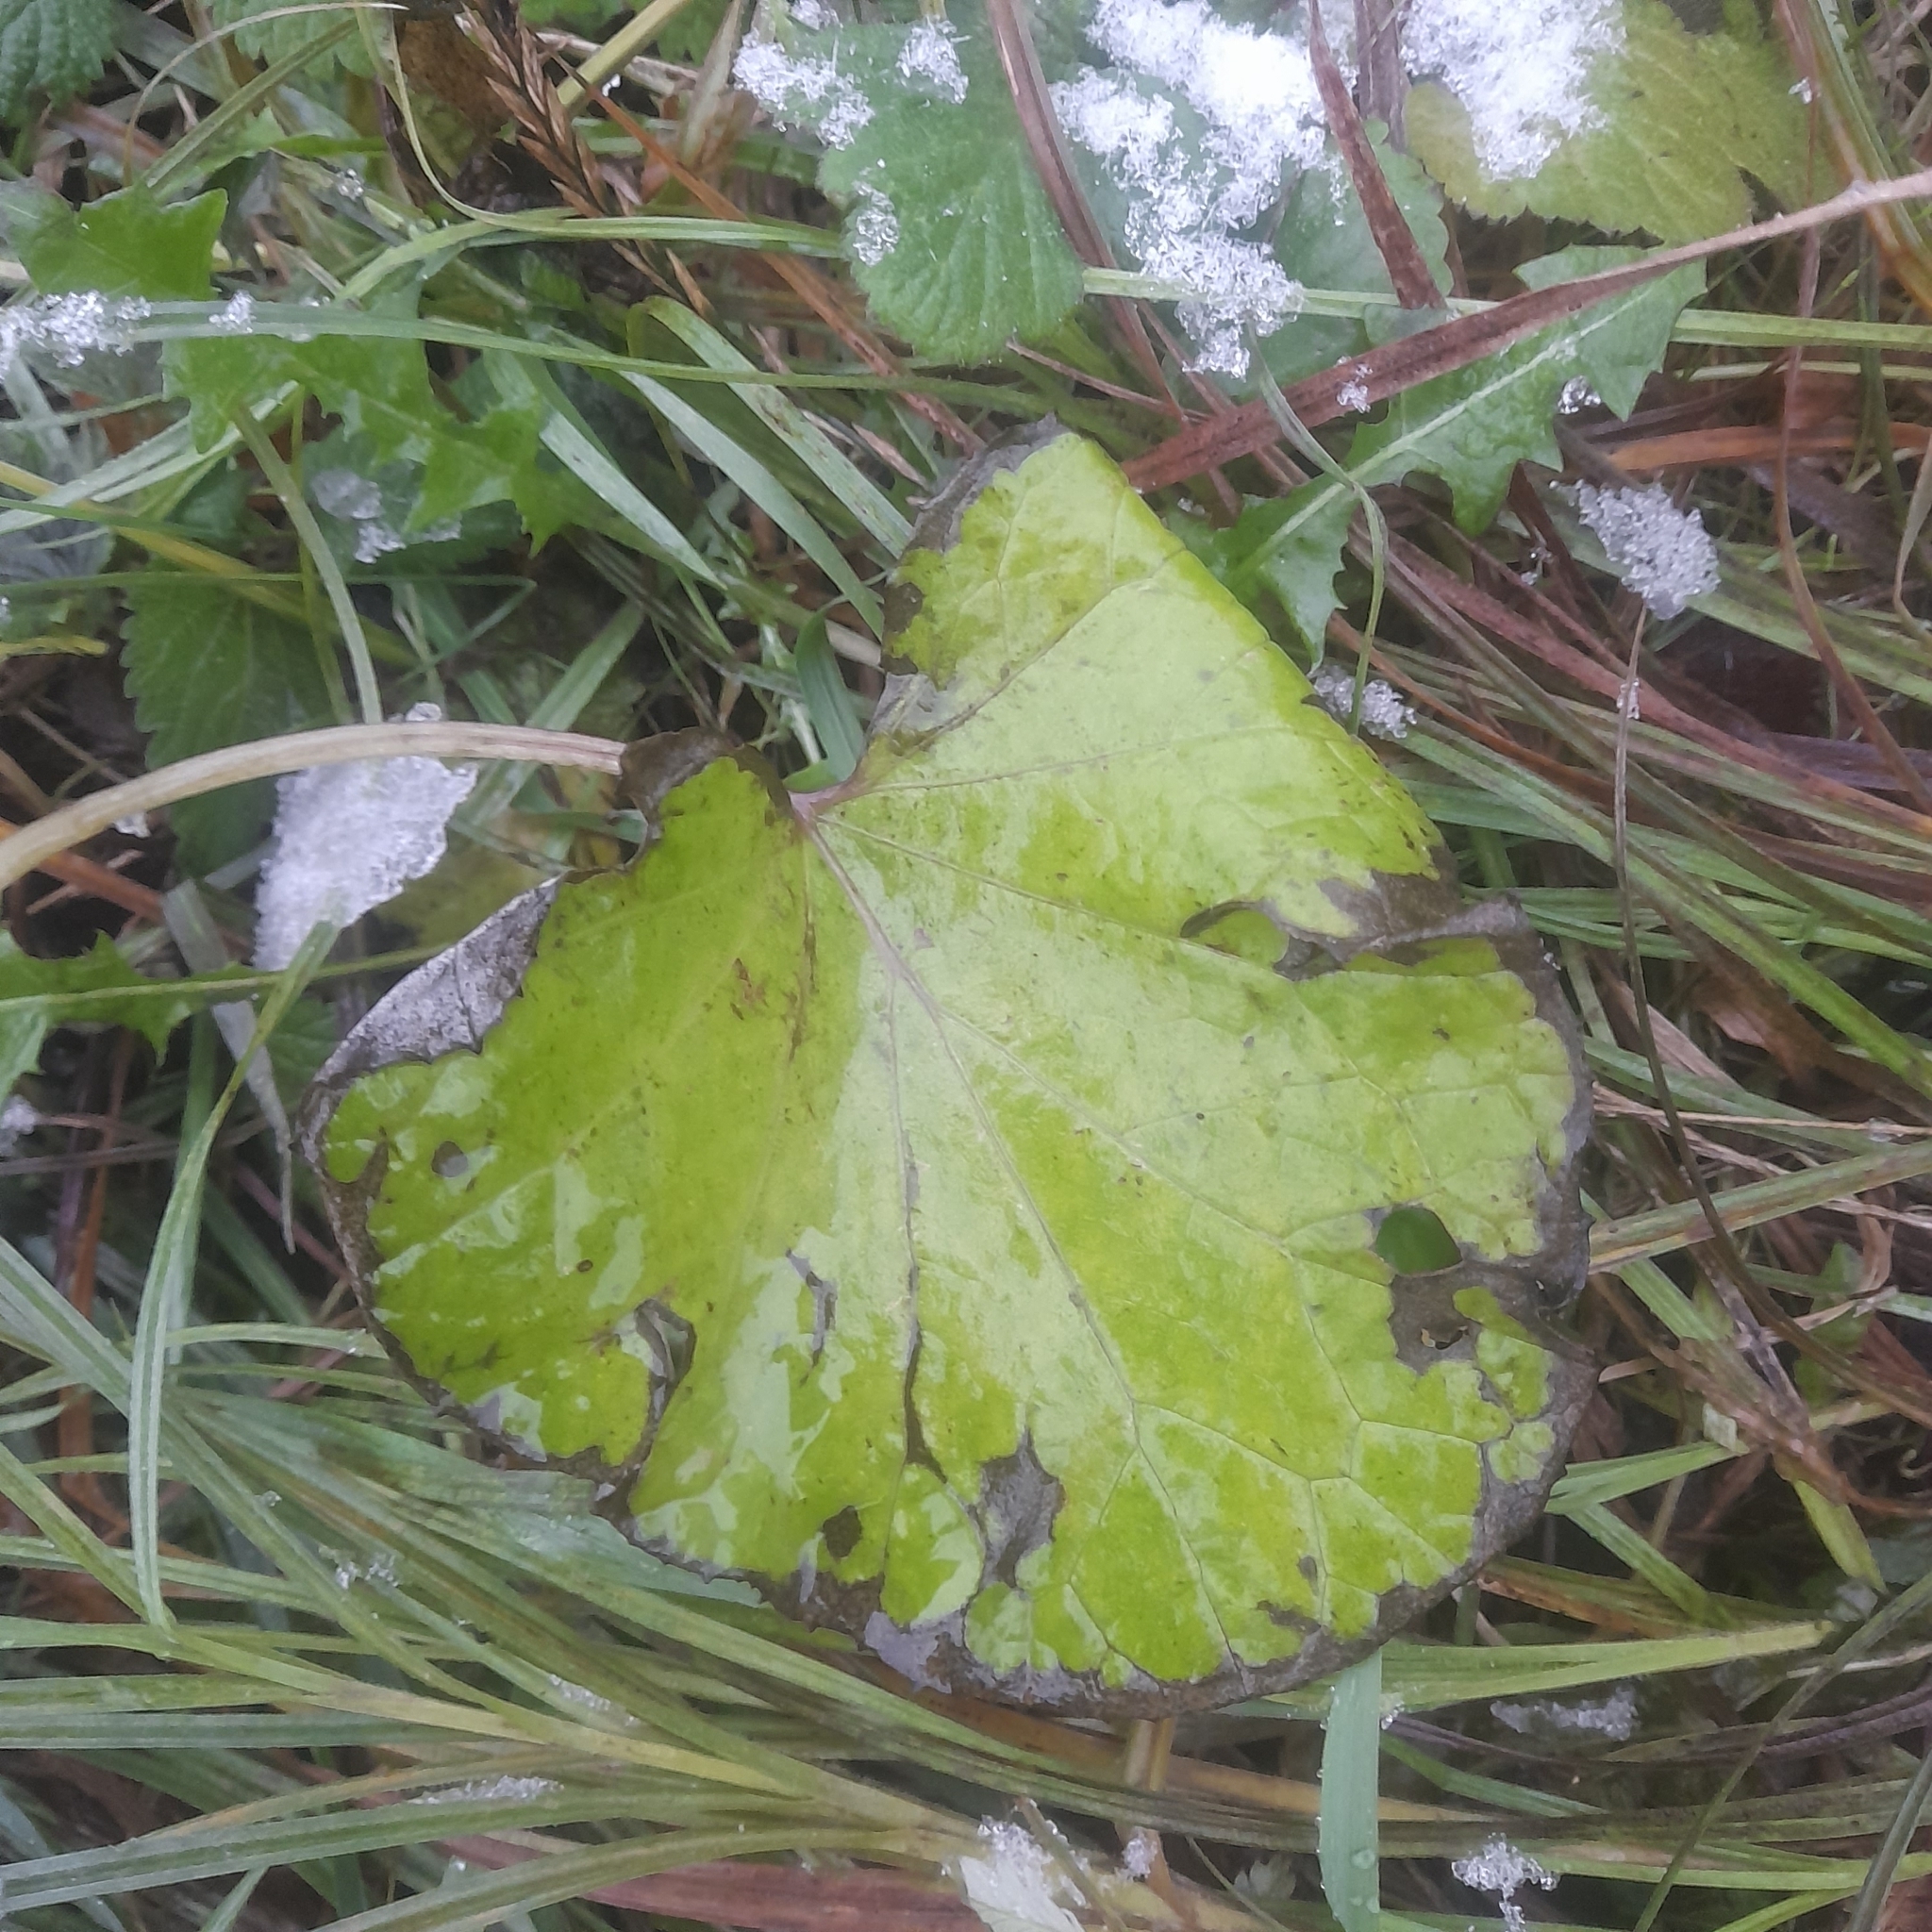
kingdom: Plantae
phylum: Tracheophyta
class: Magnoliopsida
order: Asterales
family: Asteraceae
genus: Tussilago
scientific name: Tussilago farfara
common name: Coltsfoot
